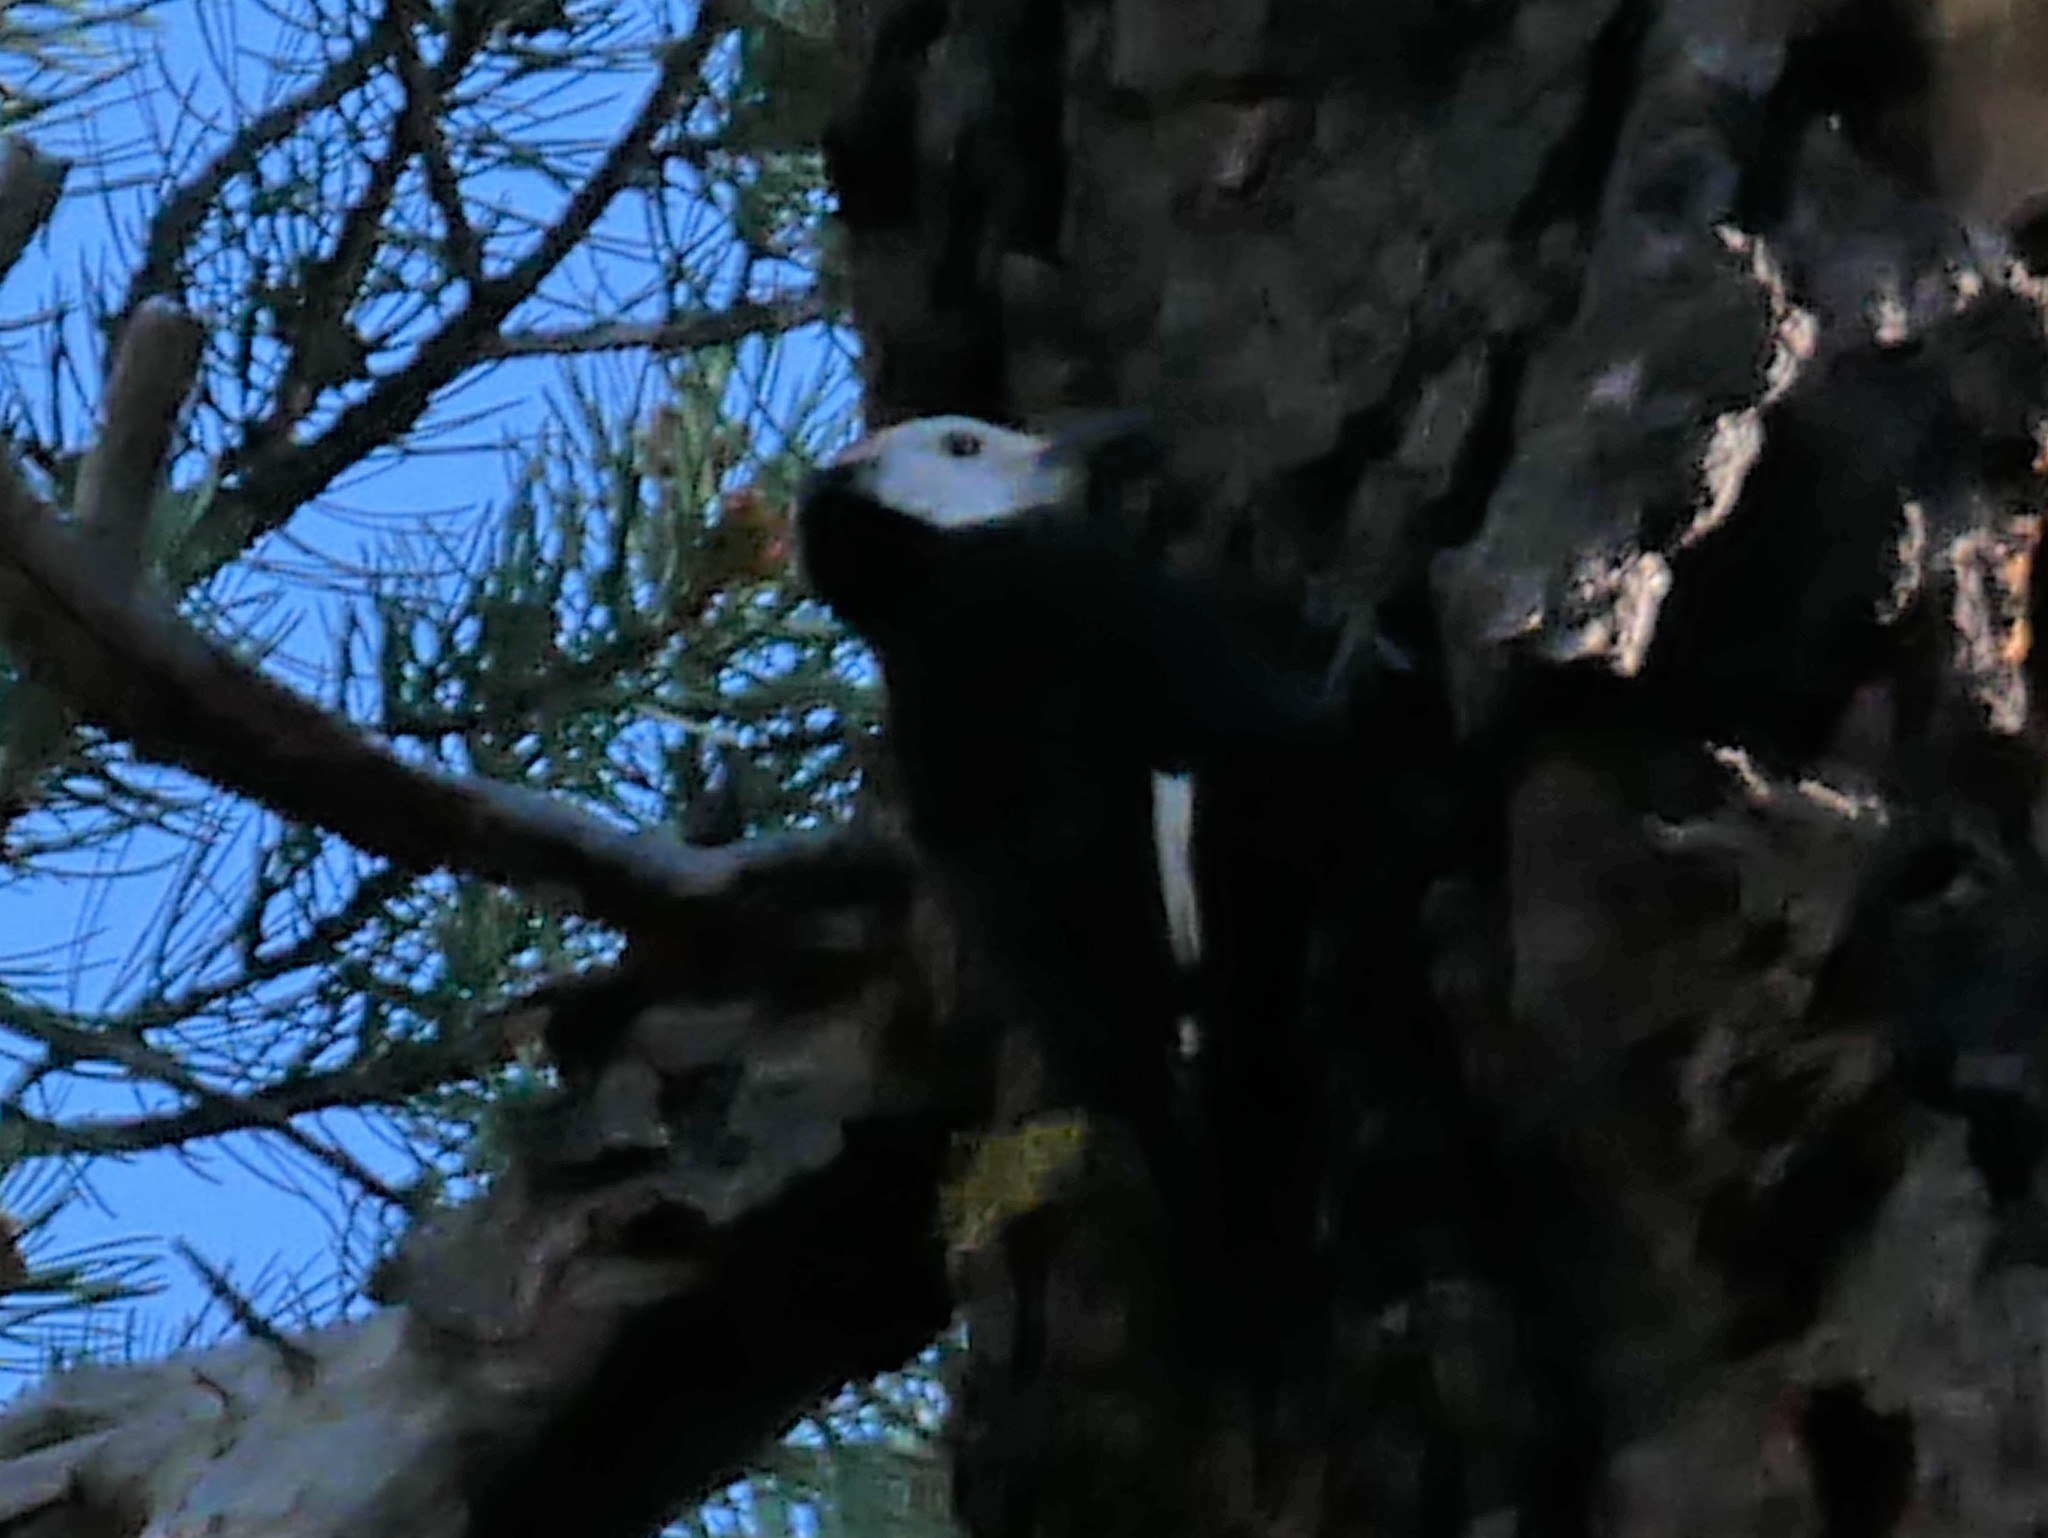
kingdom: Animalia
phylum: Chordata
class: Aves
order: Piciformes
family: Picidae
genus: Leuconotopicus
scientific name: Leuconotopicus albolarvatus
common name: White-headed woodpecker
